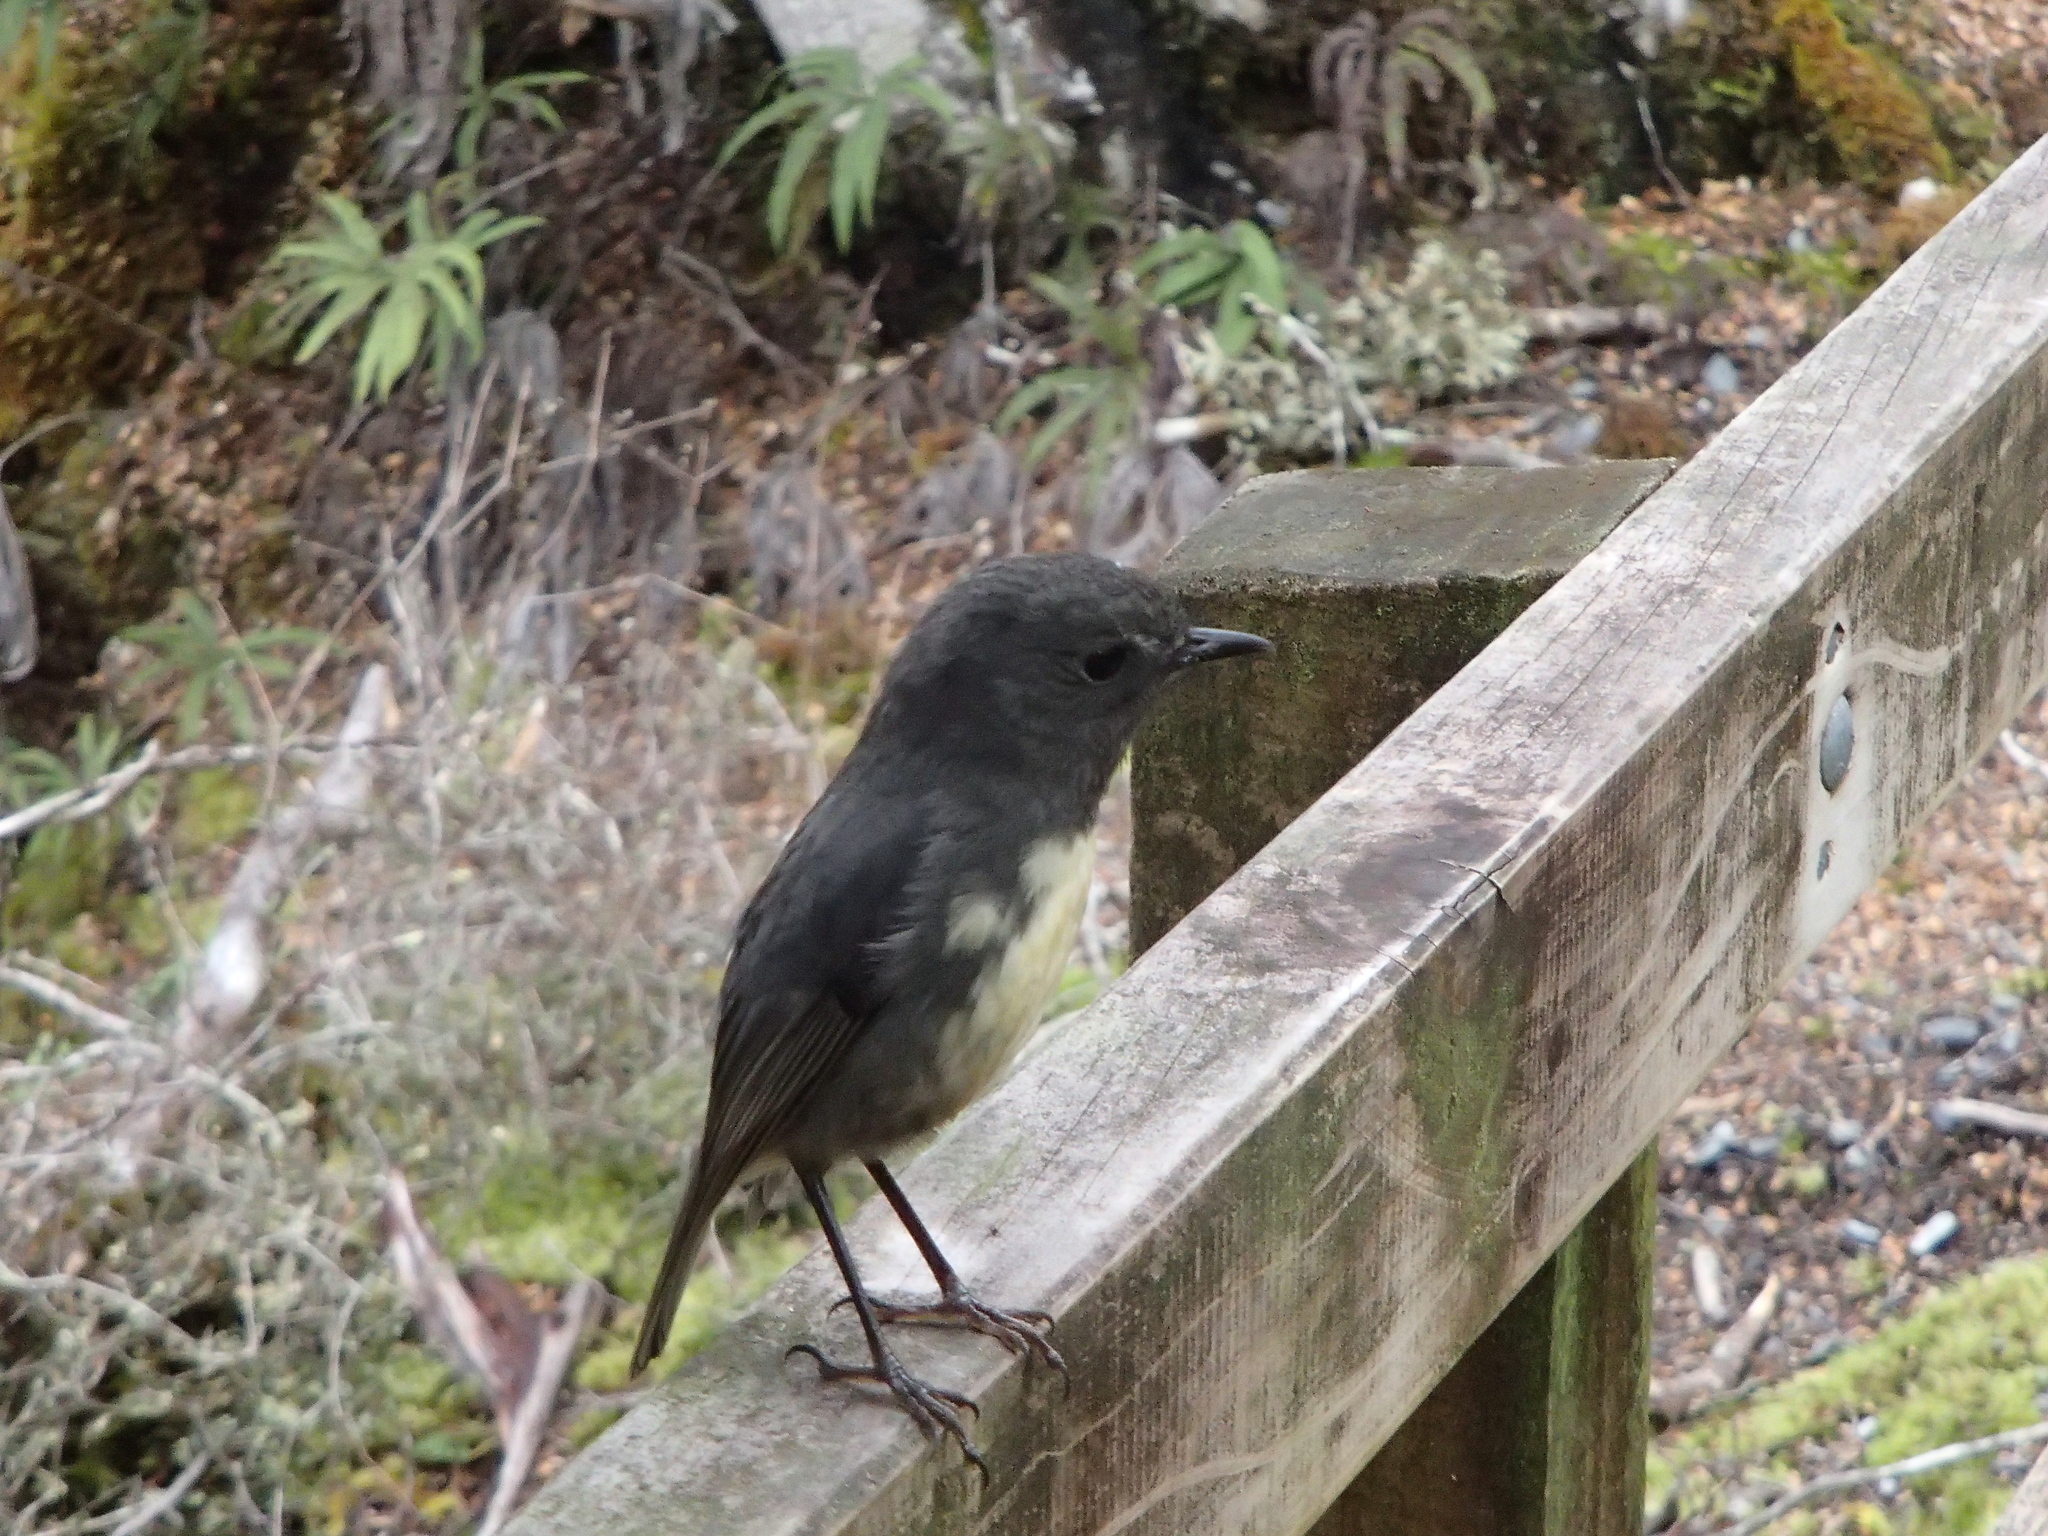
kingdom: Animalia
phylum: Chordata
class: Aves
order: Passeriformes
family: Petroicidae
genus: Petroica
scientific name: Petroica australis
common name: New zealand robin
